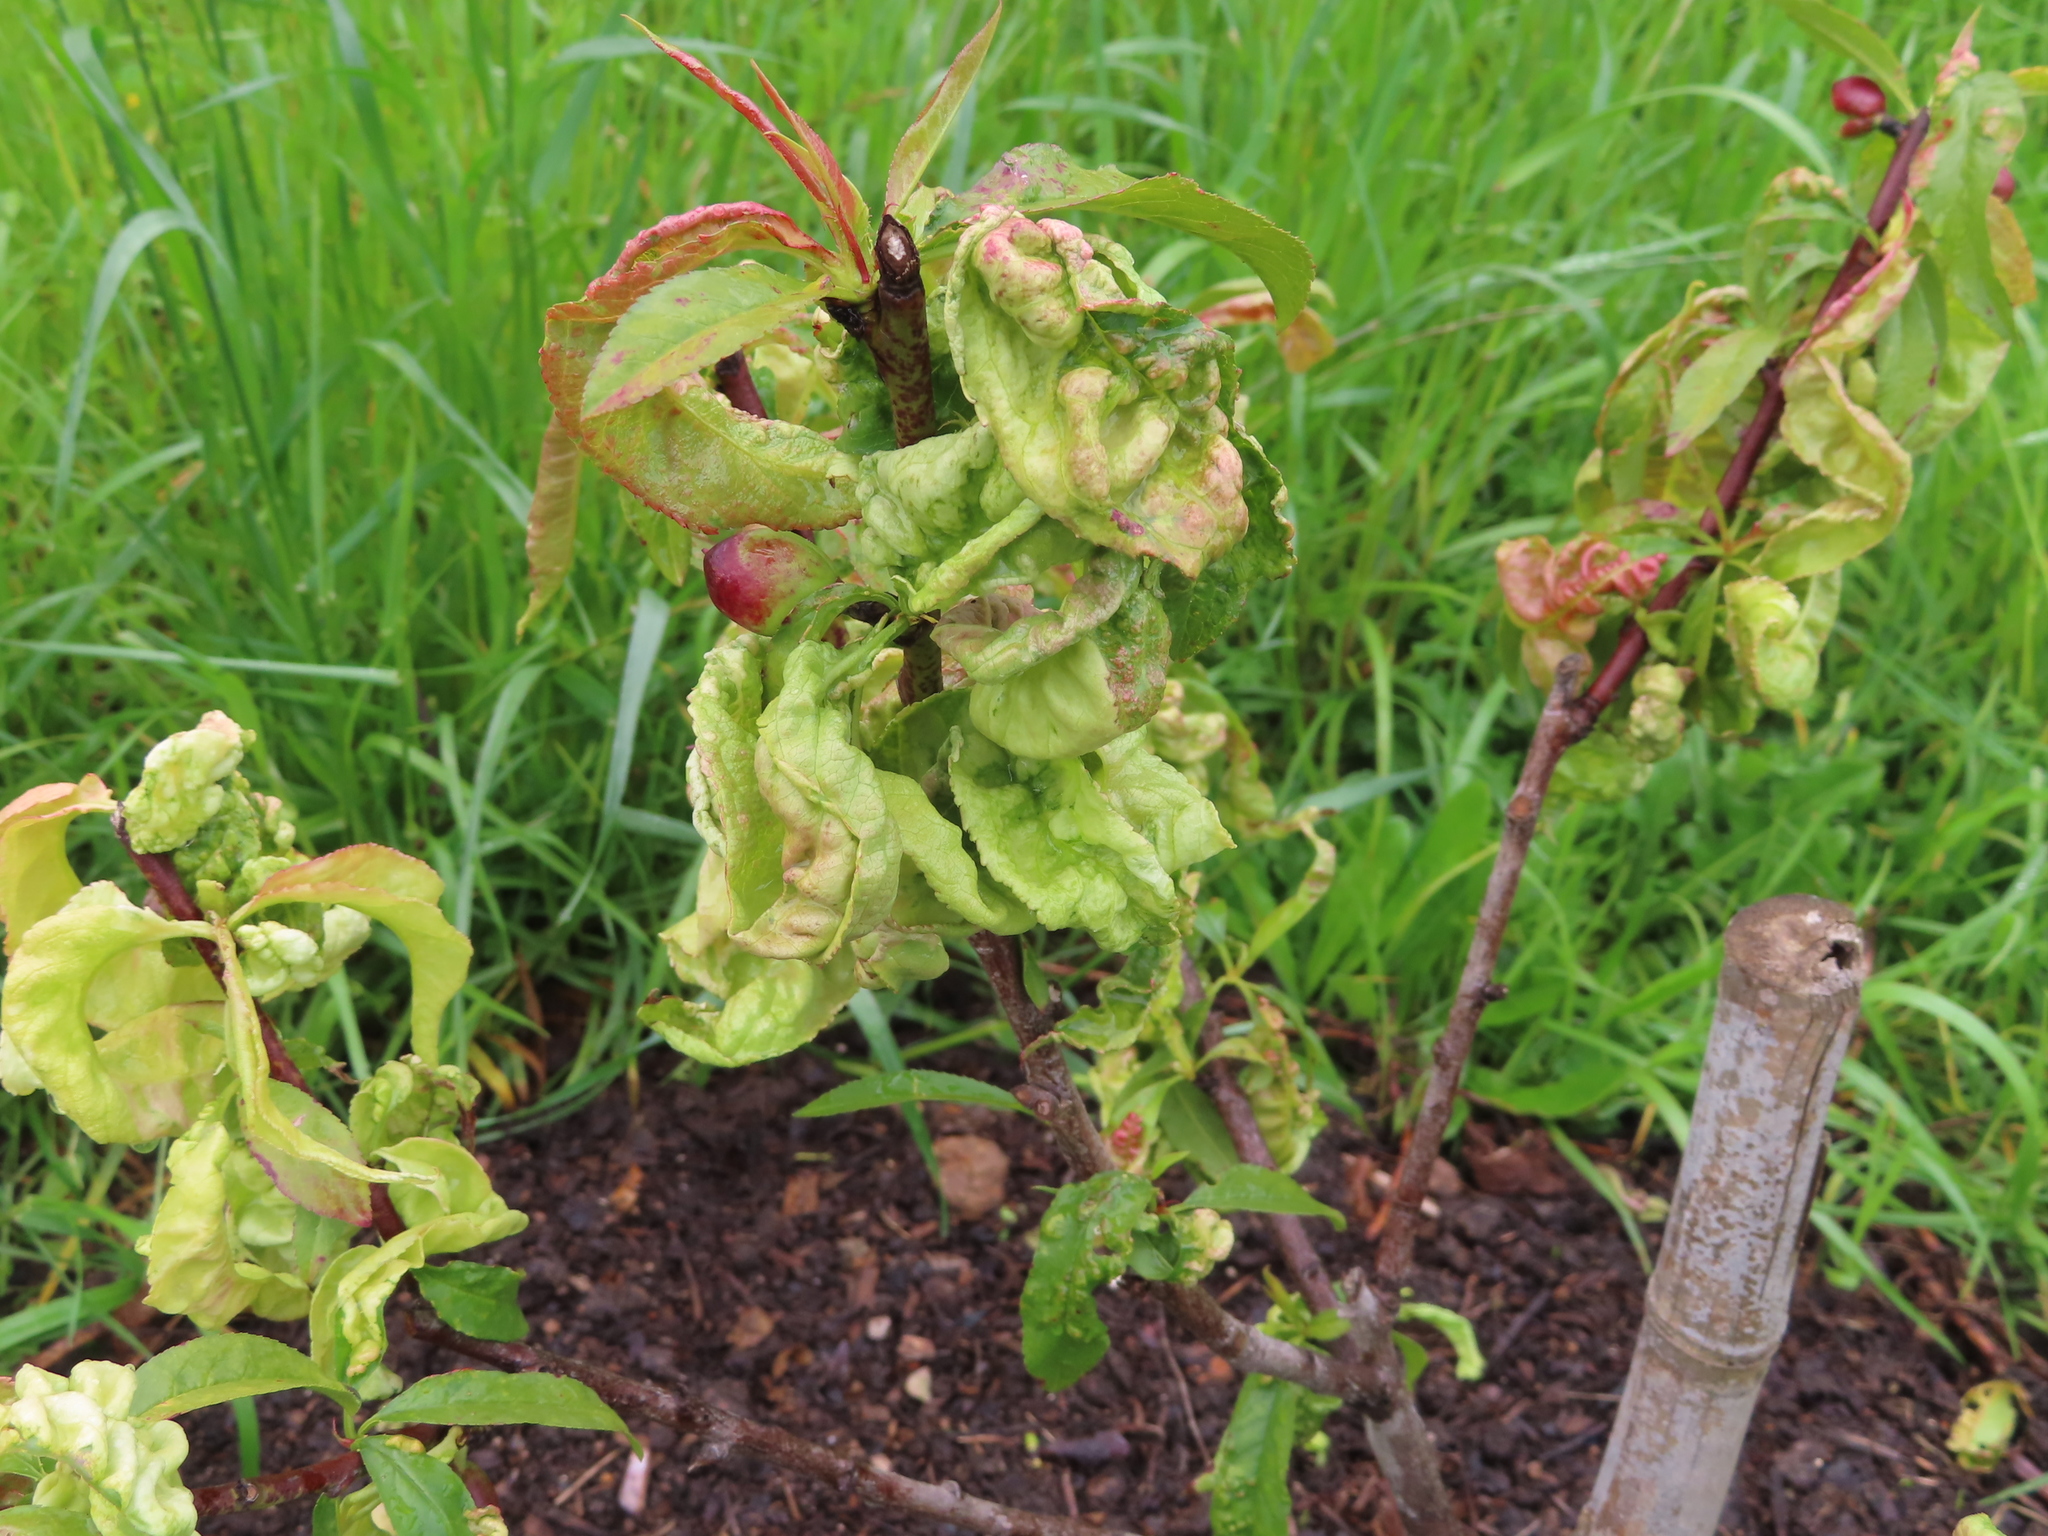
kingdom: Fungi
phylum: Ascomycota
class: Taphrinomycetes
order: Taphrinales
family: Taphrinaceae
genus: Taphrina
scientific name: Taphrina deformans
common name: Peach leaf curl
